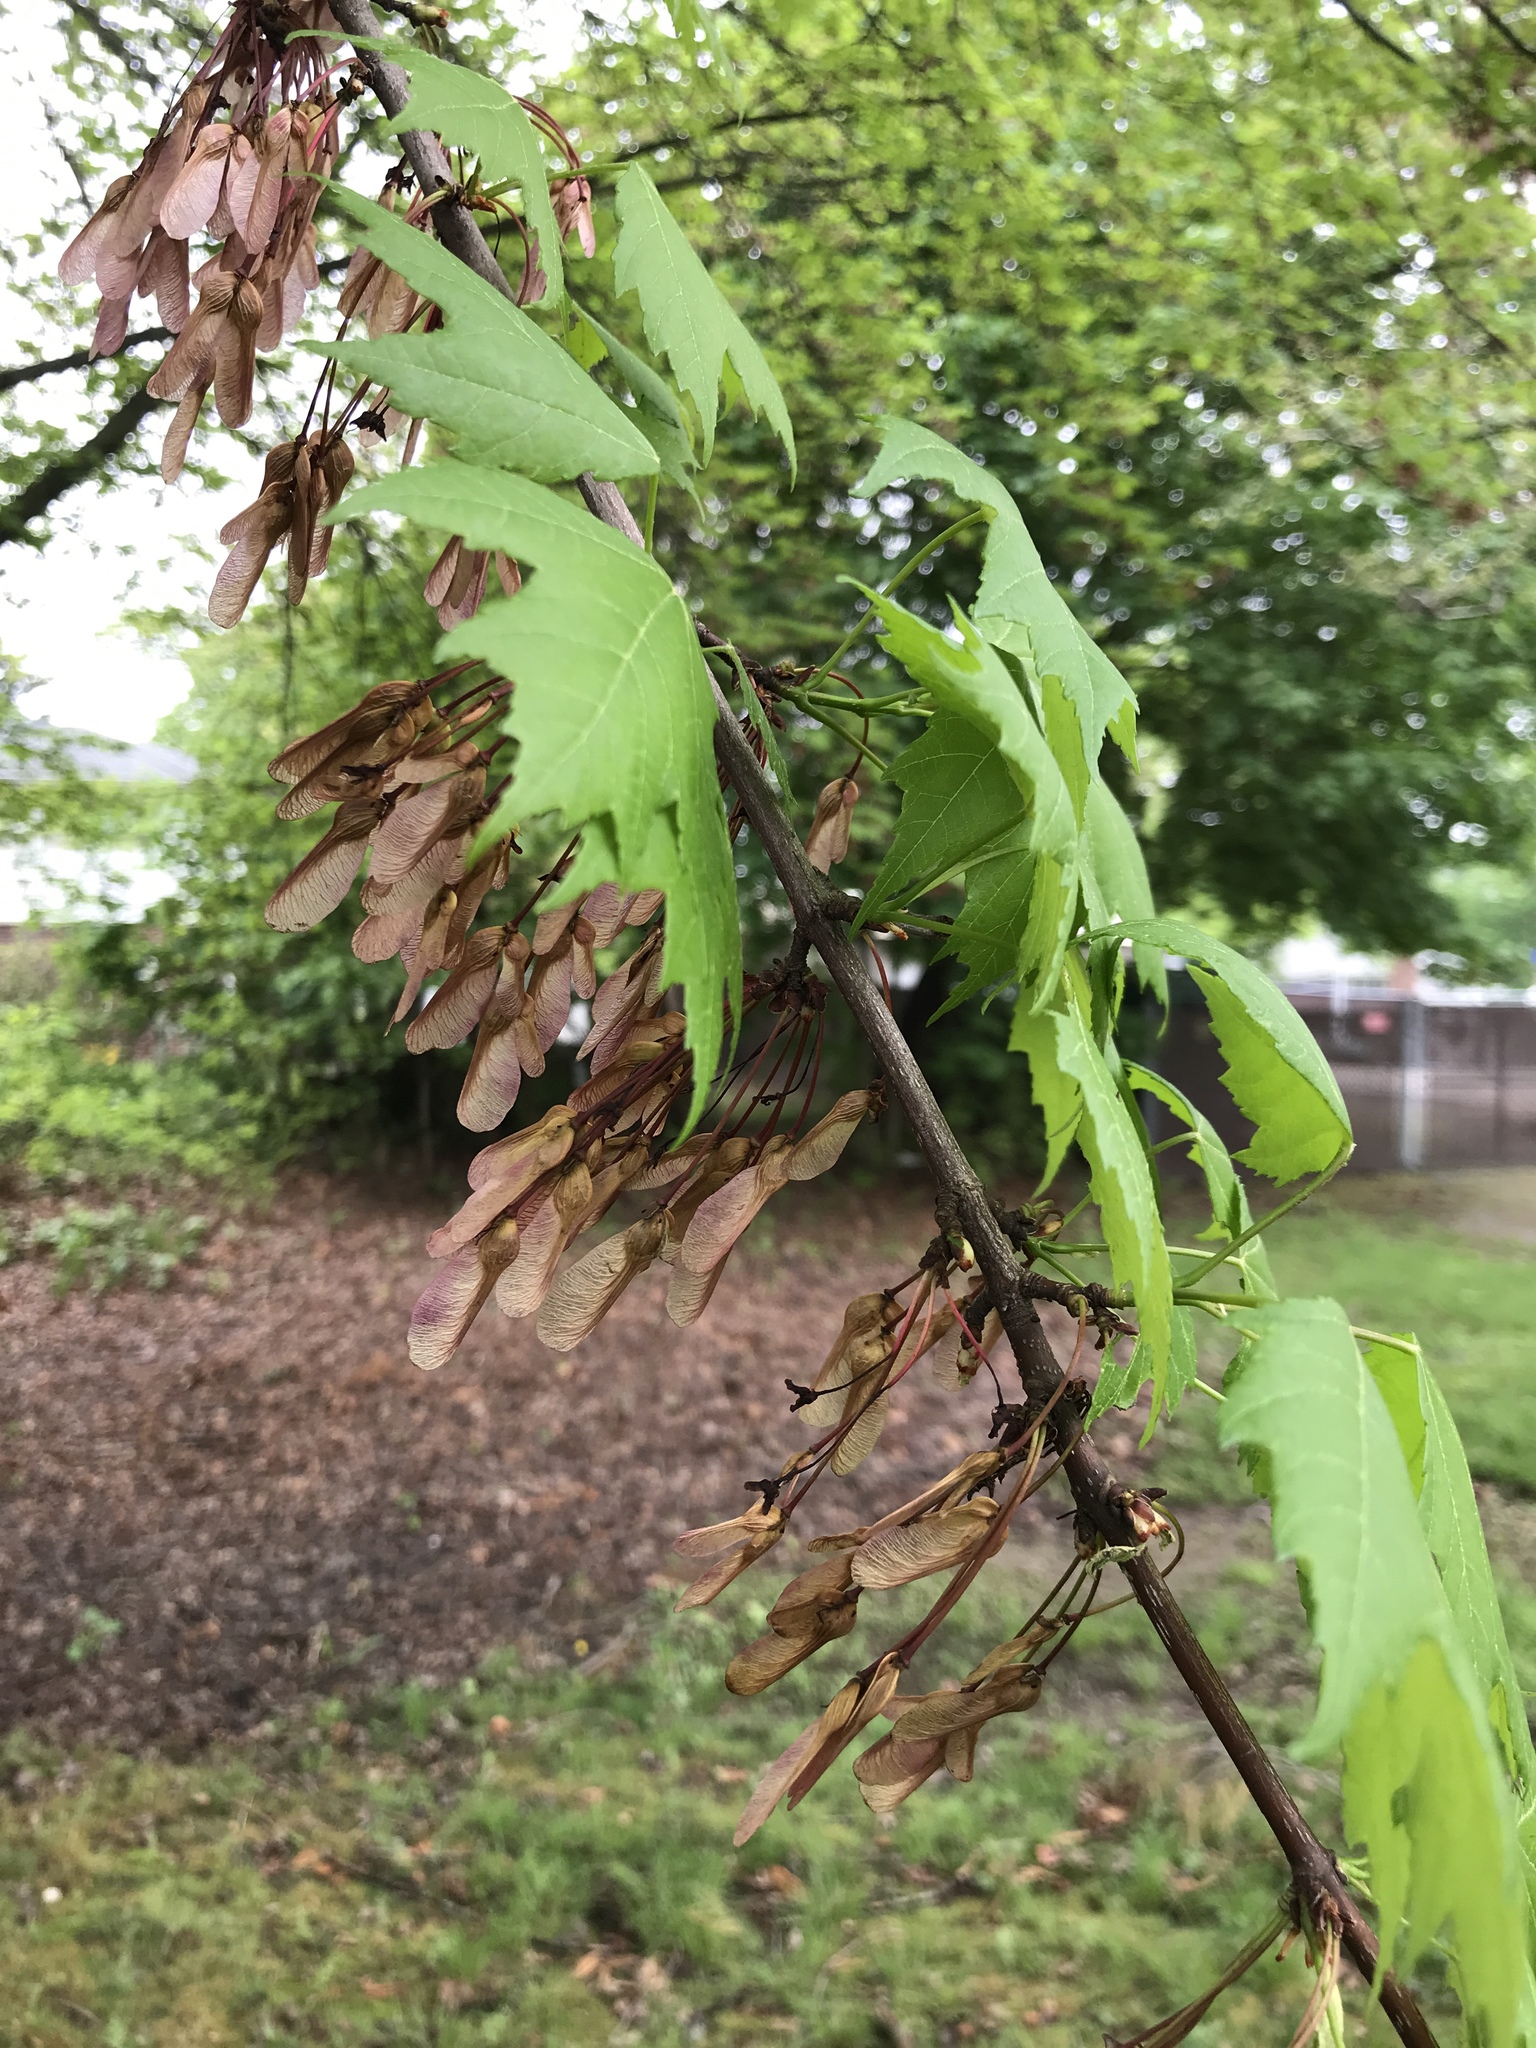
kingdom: Plantae
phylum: Tracheophyta
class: Magnoliopsida
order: Sapindales
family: Sapindaceae
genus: Acer
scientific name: Acer rubrum
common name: Red maple
